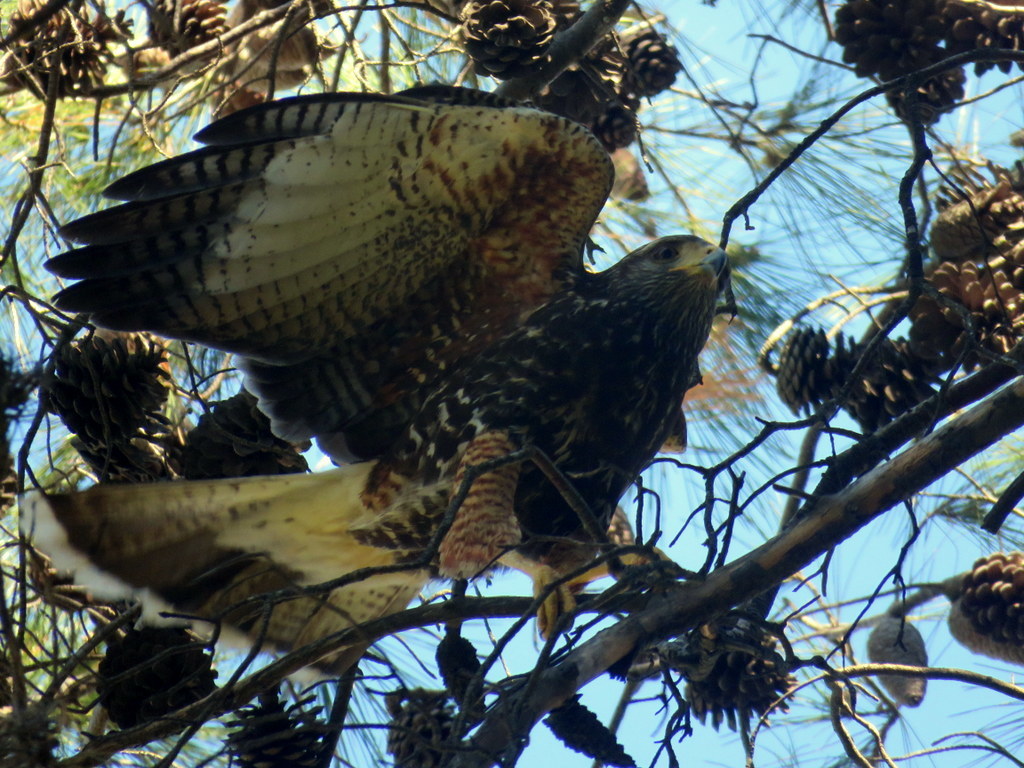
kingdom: Animalia
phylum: Chordata
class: Aves
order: Accipitriformes
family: Accipitridae
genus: Parabuteo
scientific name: Parabuteo unicinctus
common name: Harris's hawk
